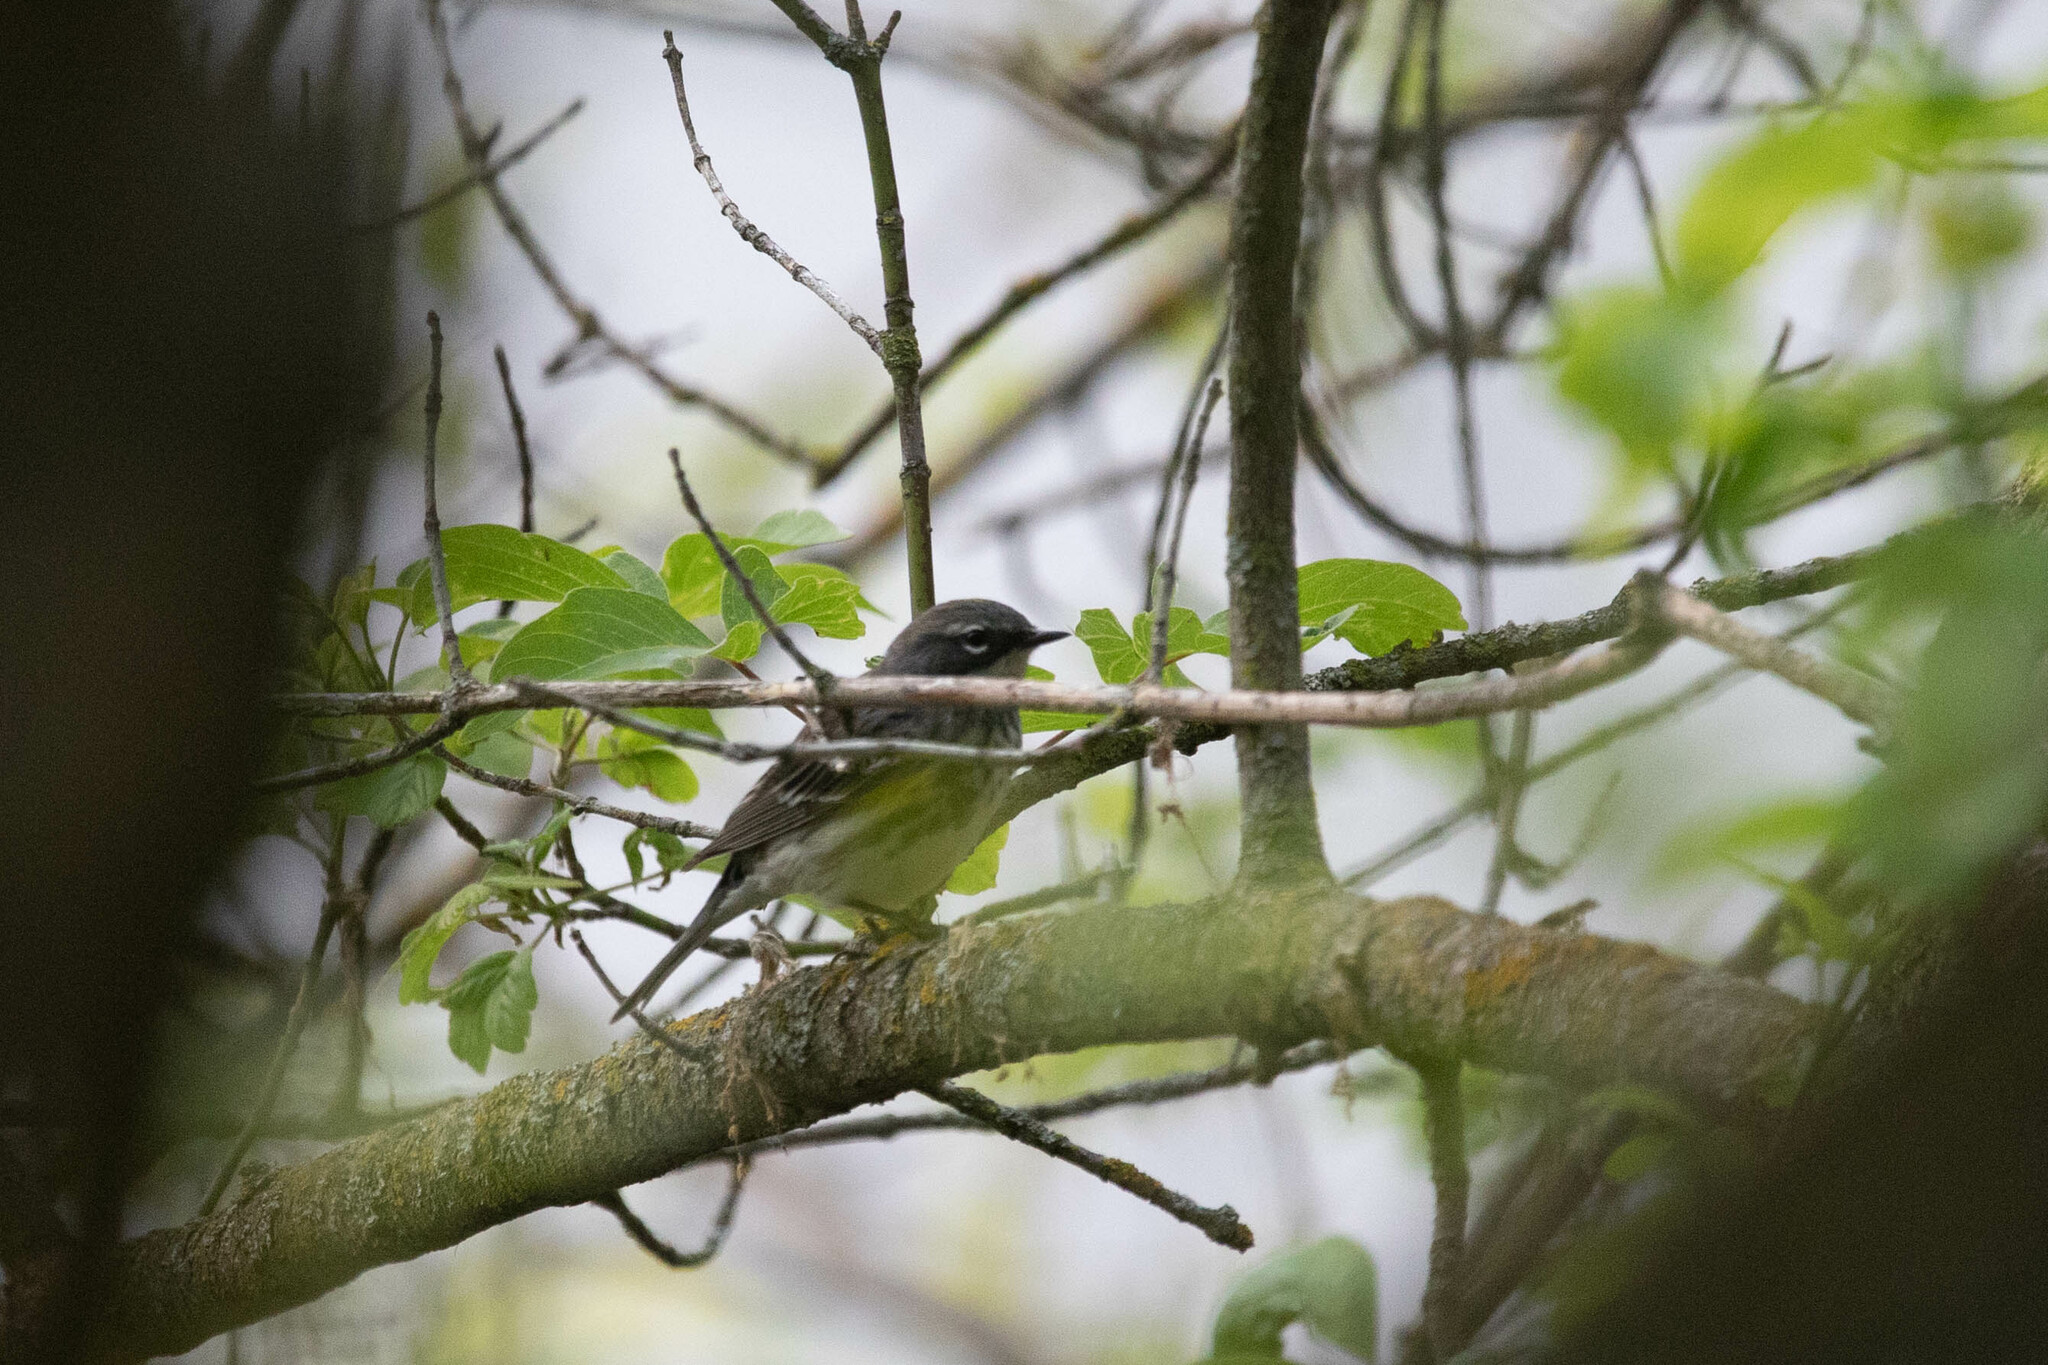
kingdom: Animalia
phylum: Chordata
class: Aves
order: Passeriformes
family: Parulidae
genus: Setophaga
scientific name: Setophaga coronata
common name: Myrtle warbler
